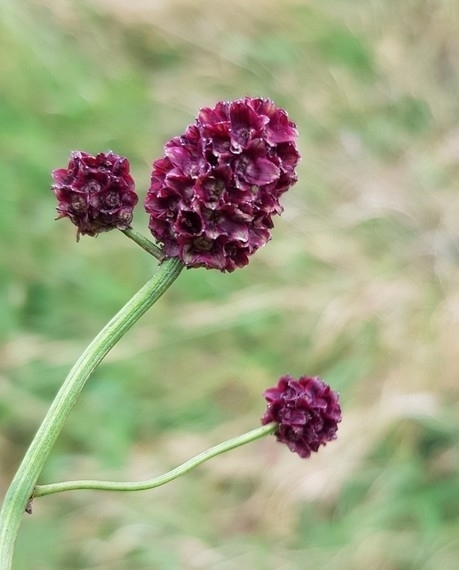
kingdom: Plantae
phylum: Tracheophyta
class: Magnoliopsida
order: Rosales
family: Rosaceae
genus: Sanguisorba
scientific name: Sanguisorba officinalis
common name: Great burnet
